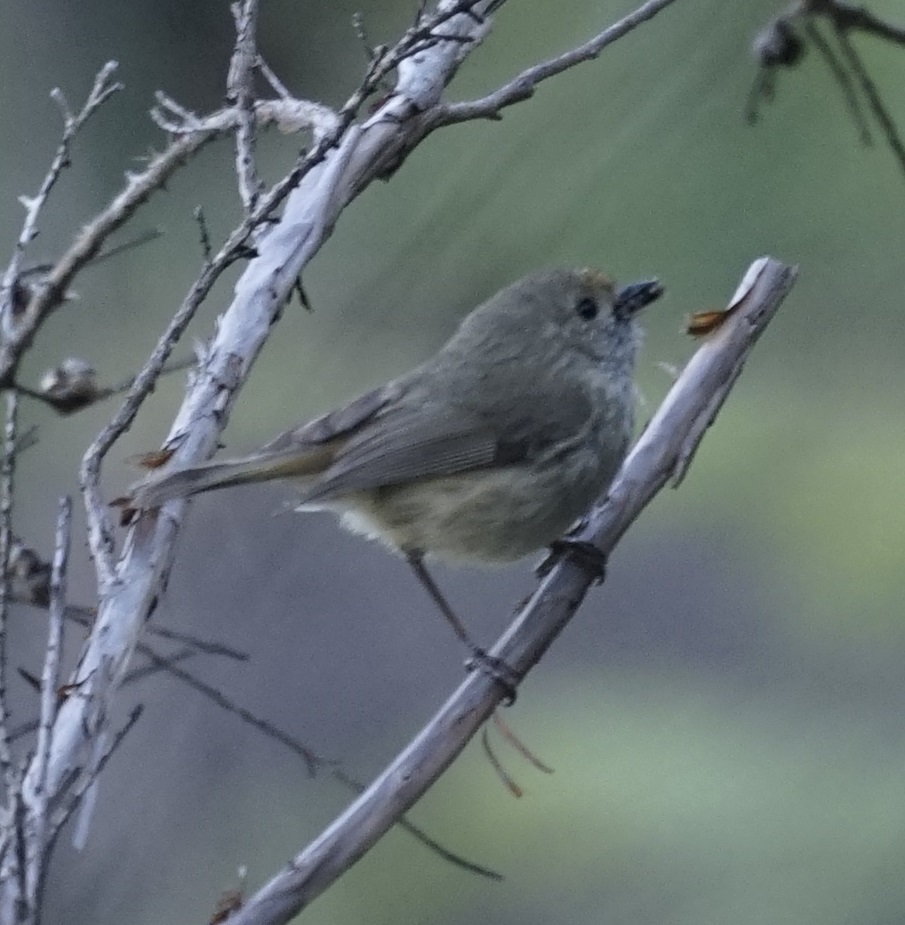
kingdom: Animalia
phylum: Chordata
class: Aves
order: Passeriformes
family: Acanthizidae
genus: Acanthiza
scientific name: Acanthiza pusilla
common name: Brown thornbill
